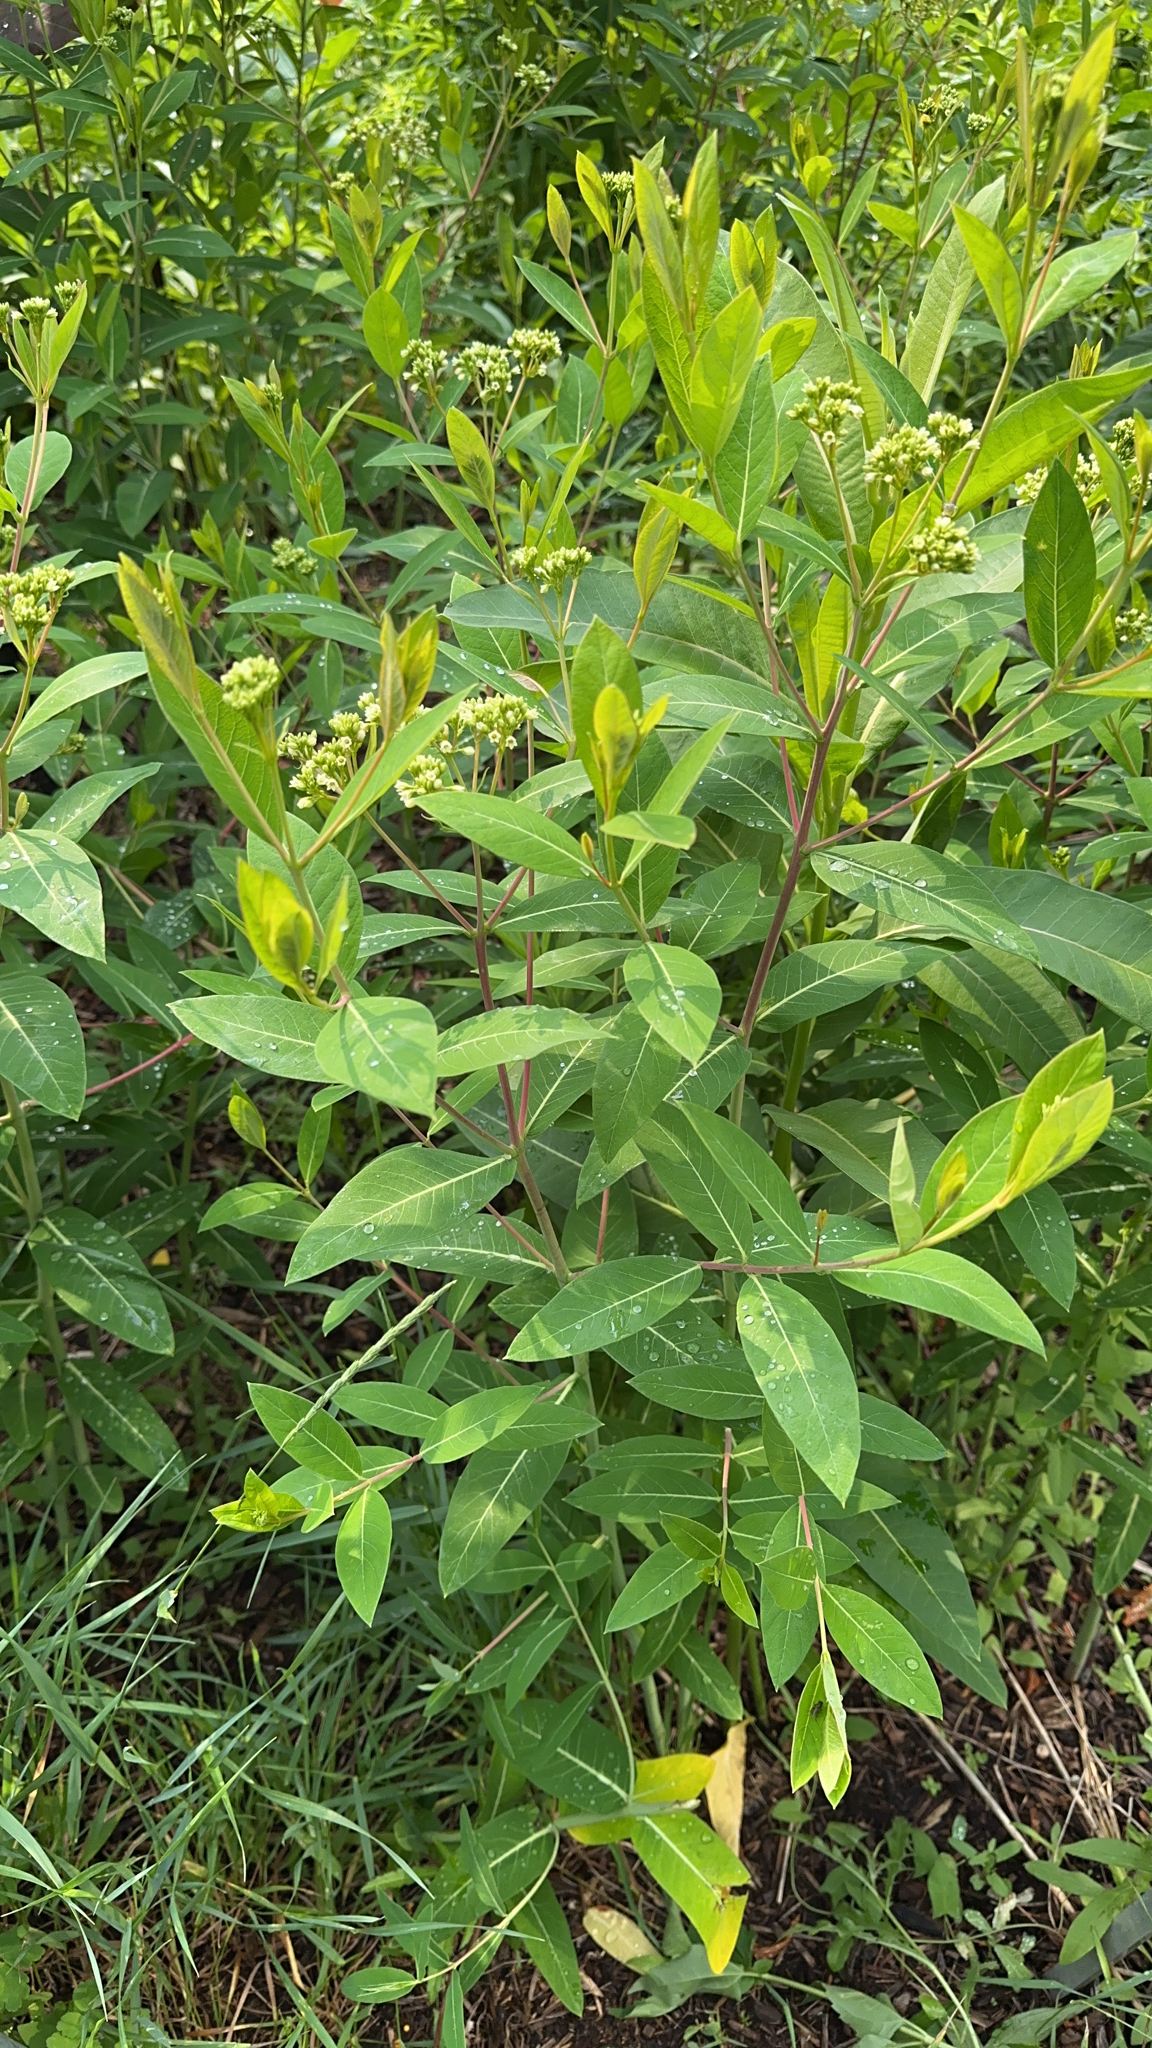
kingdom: Plantae
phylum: Tracheophyta
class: Magnoliopsida
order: Gentianales
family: Apocynaceae
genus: Apocynum
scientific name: Apocynum cannabinum
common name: Hemp dogbane
